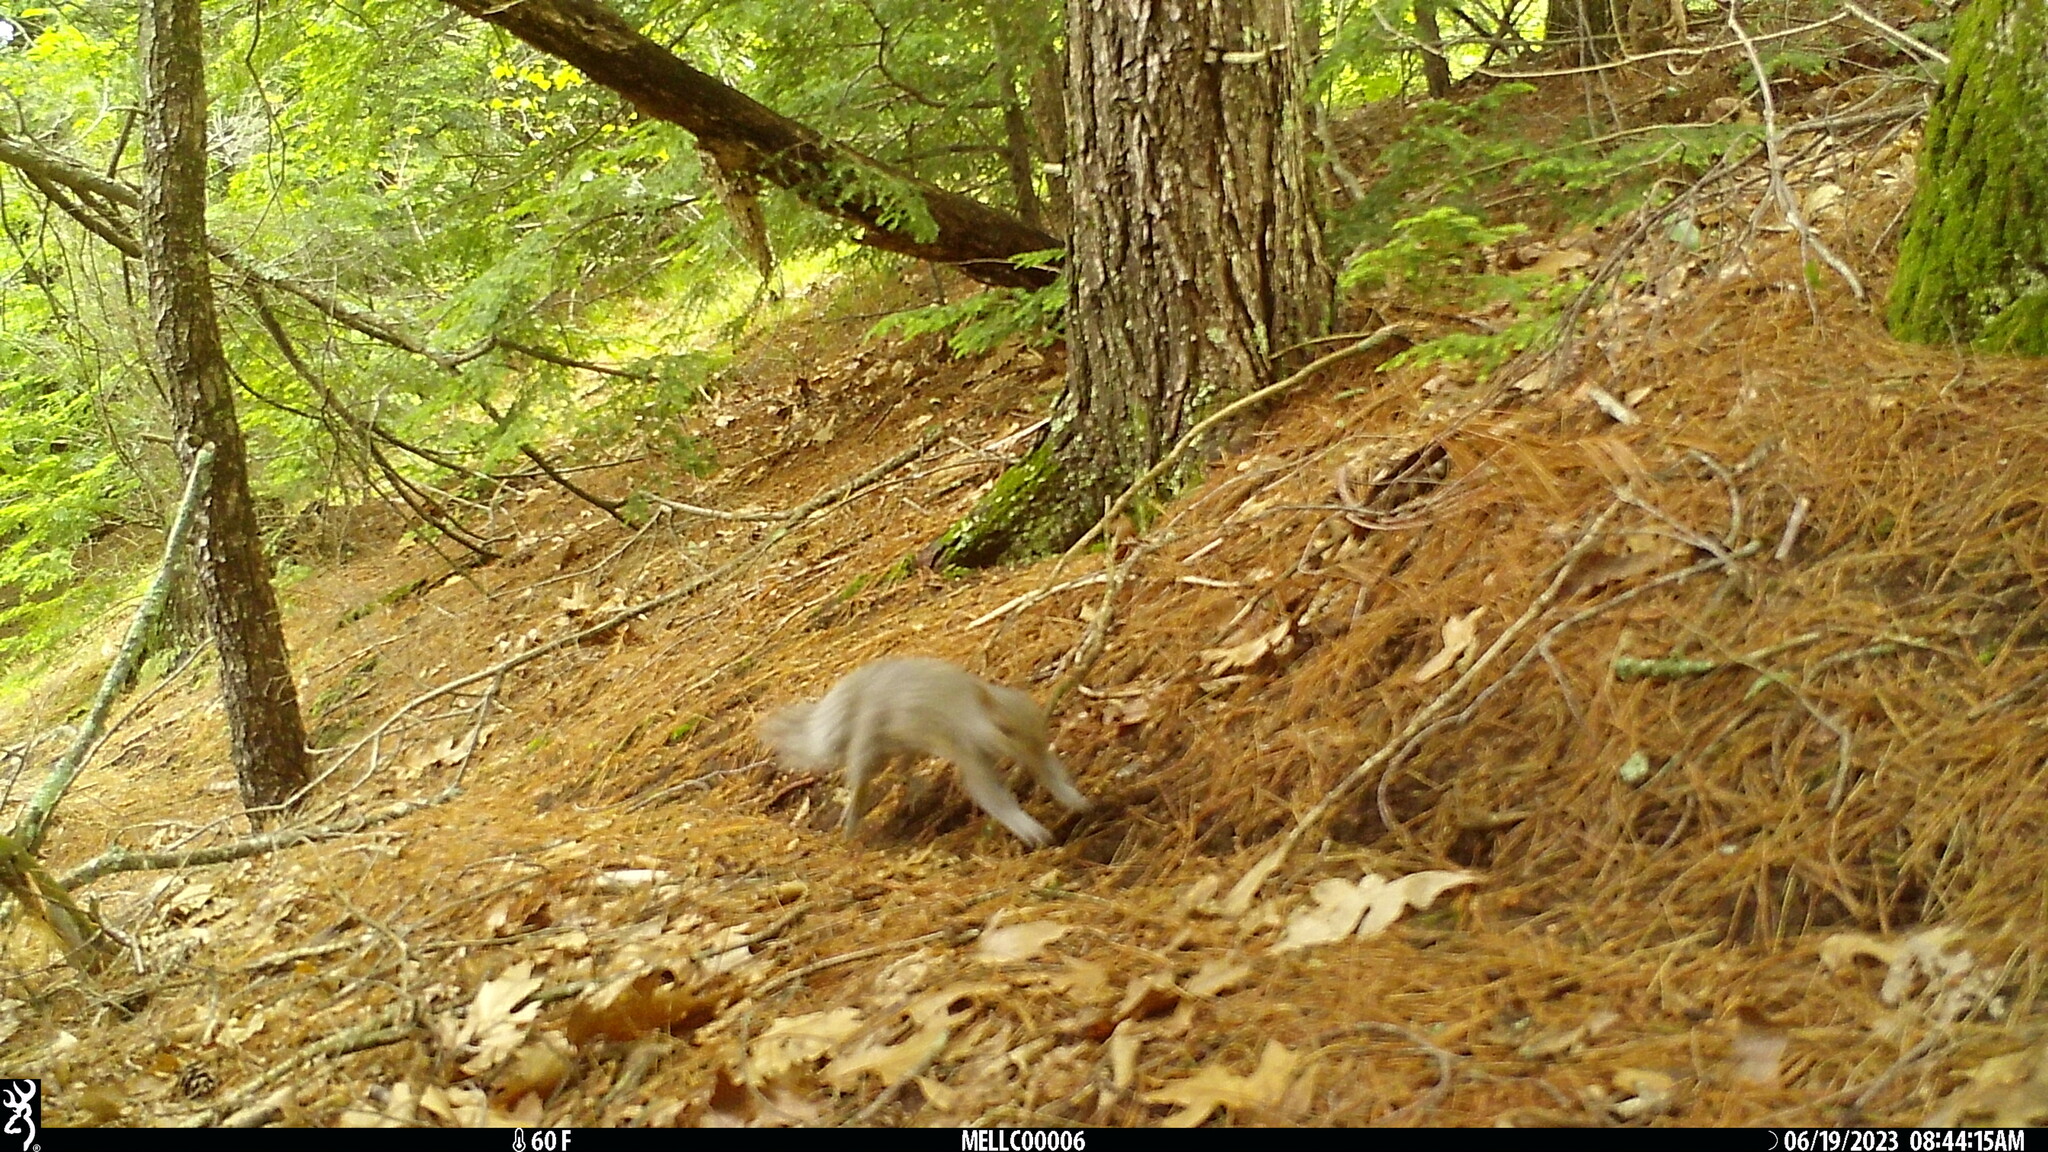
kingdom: Animalia
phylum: Chordata
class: Mammalia
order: Rodentia
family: Sciuridae
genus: Sciurus
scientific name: Sciurus carolinensis
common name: Eastern gray squirrel
